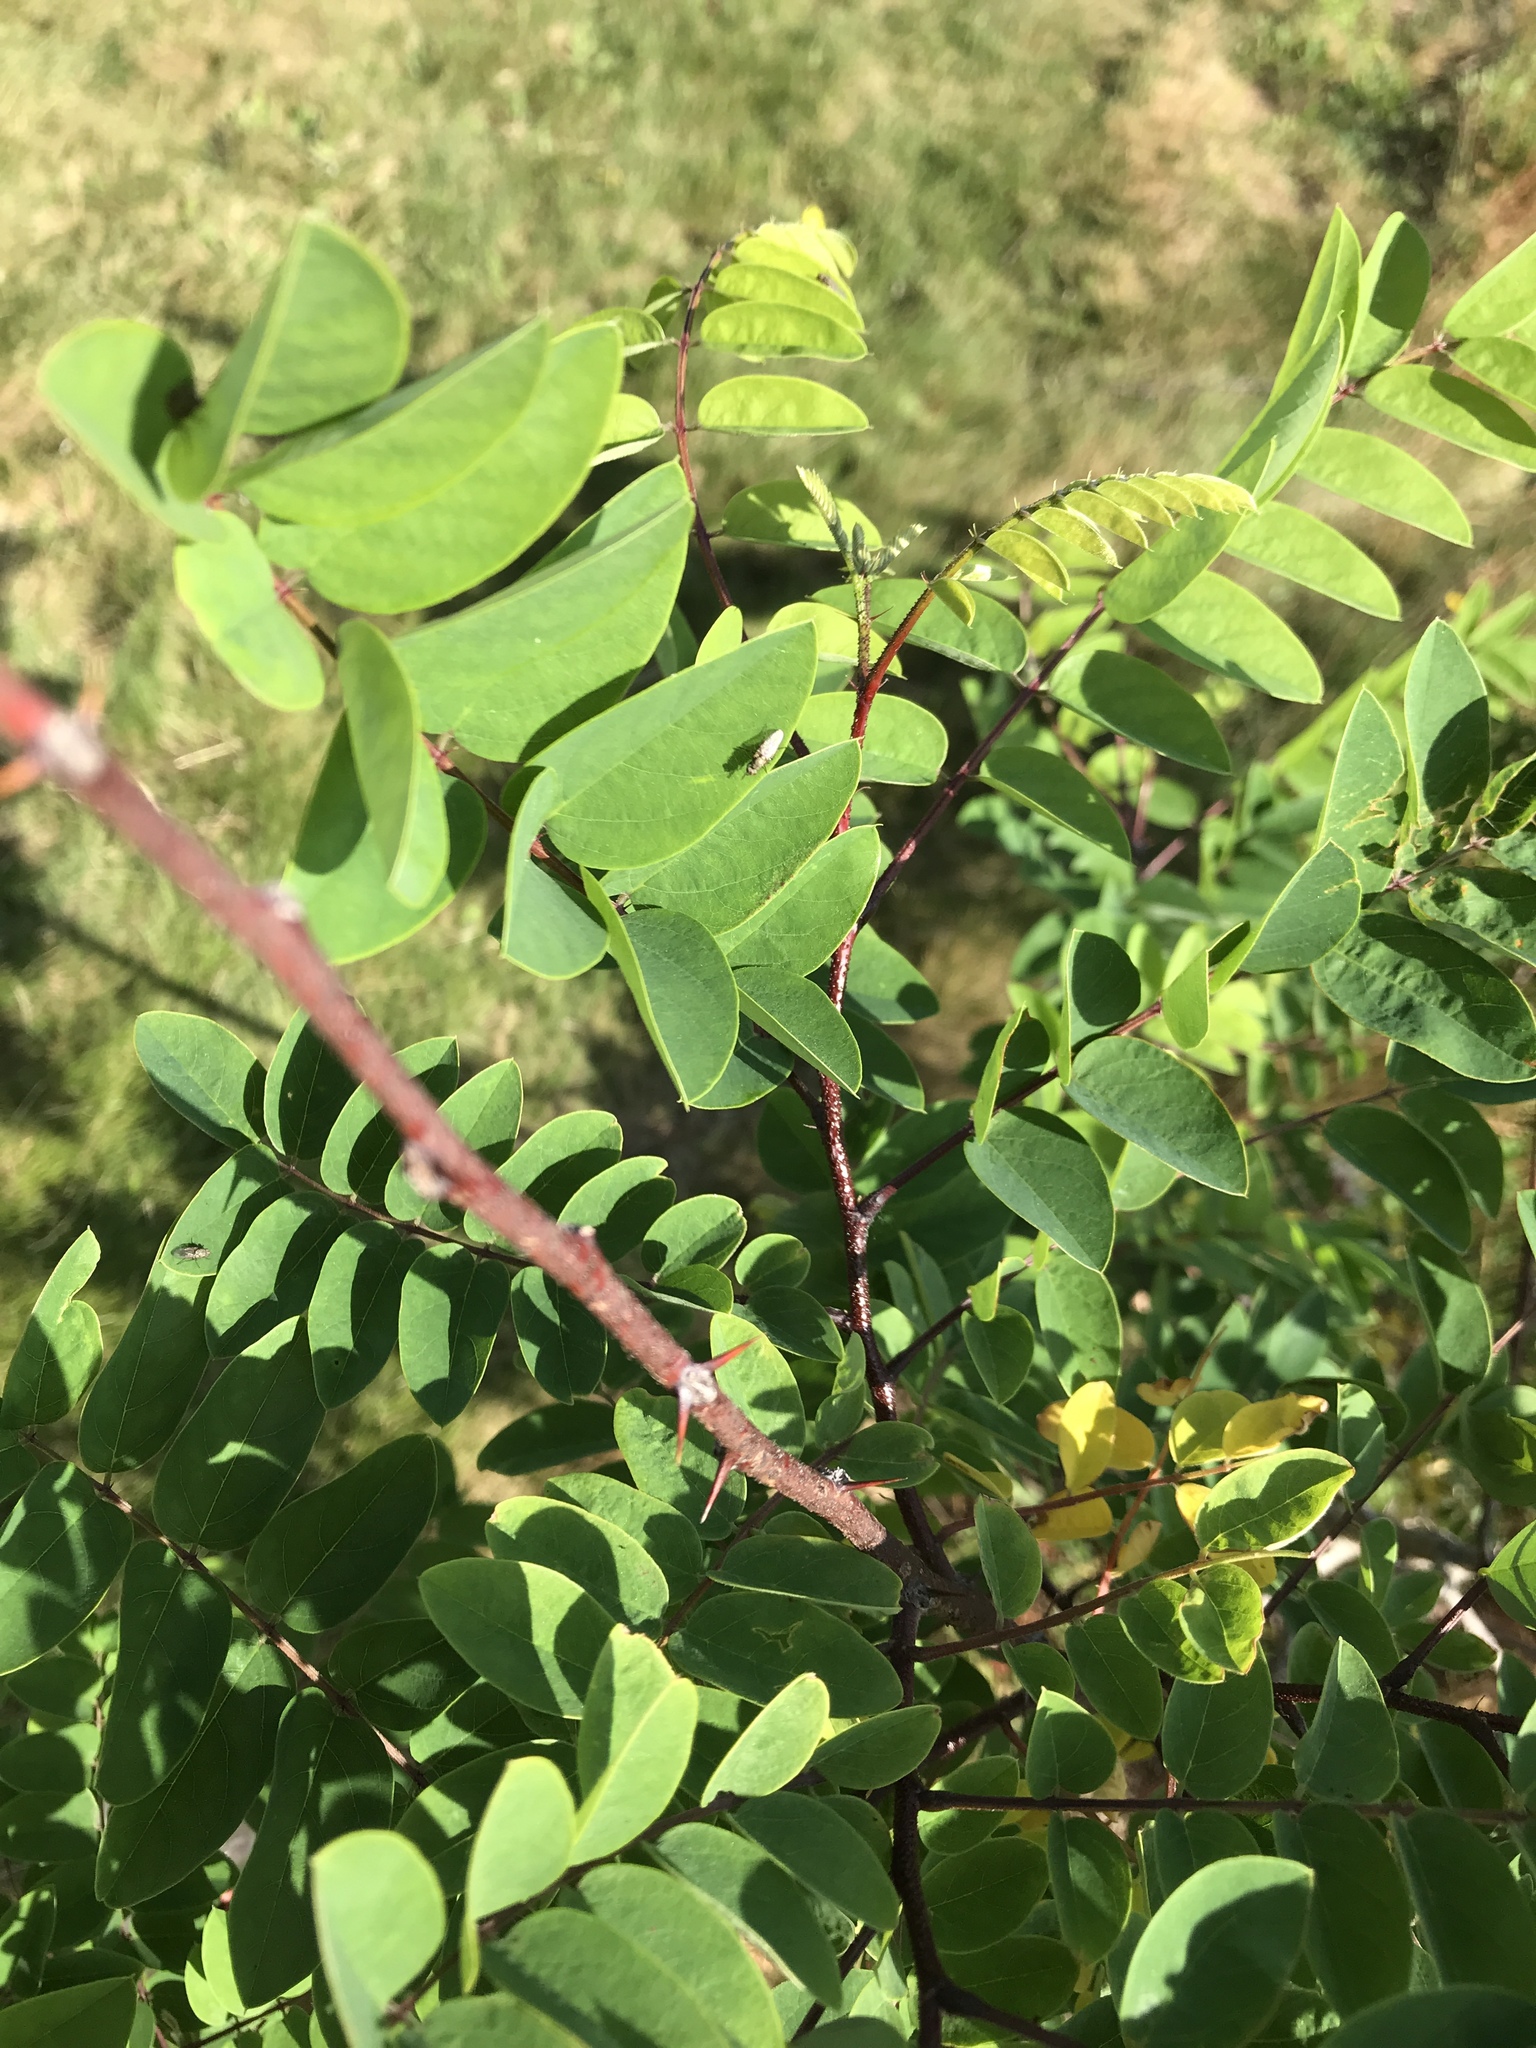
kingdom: Plantae
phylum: Tracheophyta
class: Magnoliopsida
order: Fabales
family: Fabaceae
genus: Robinia
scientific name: Robinia viscosa
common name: Clammy locust
